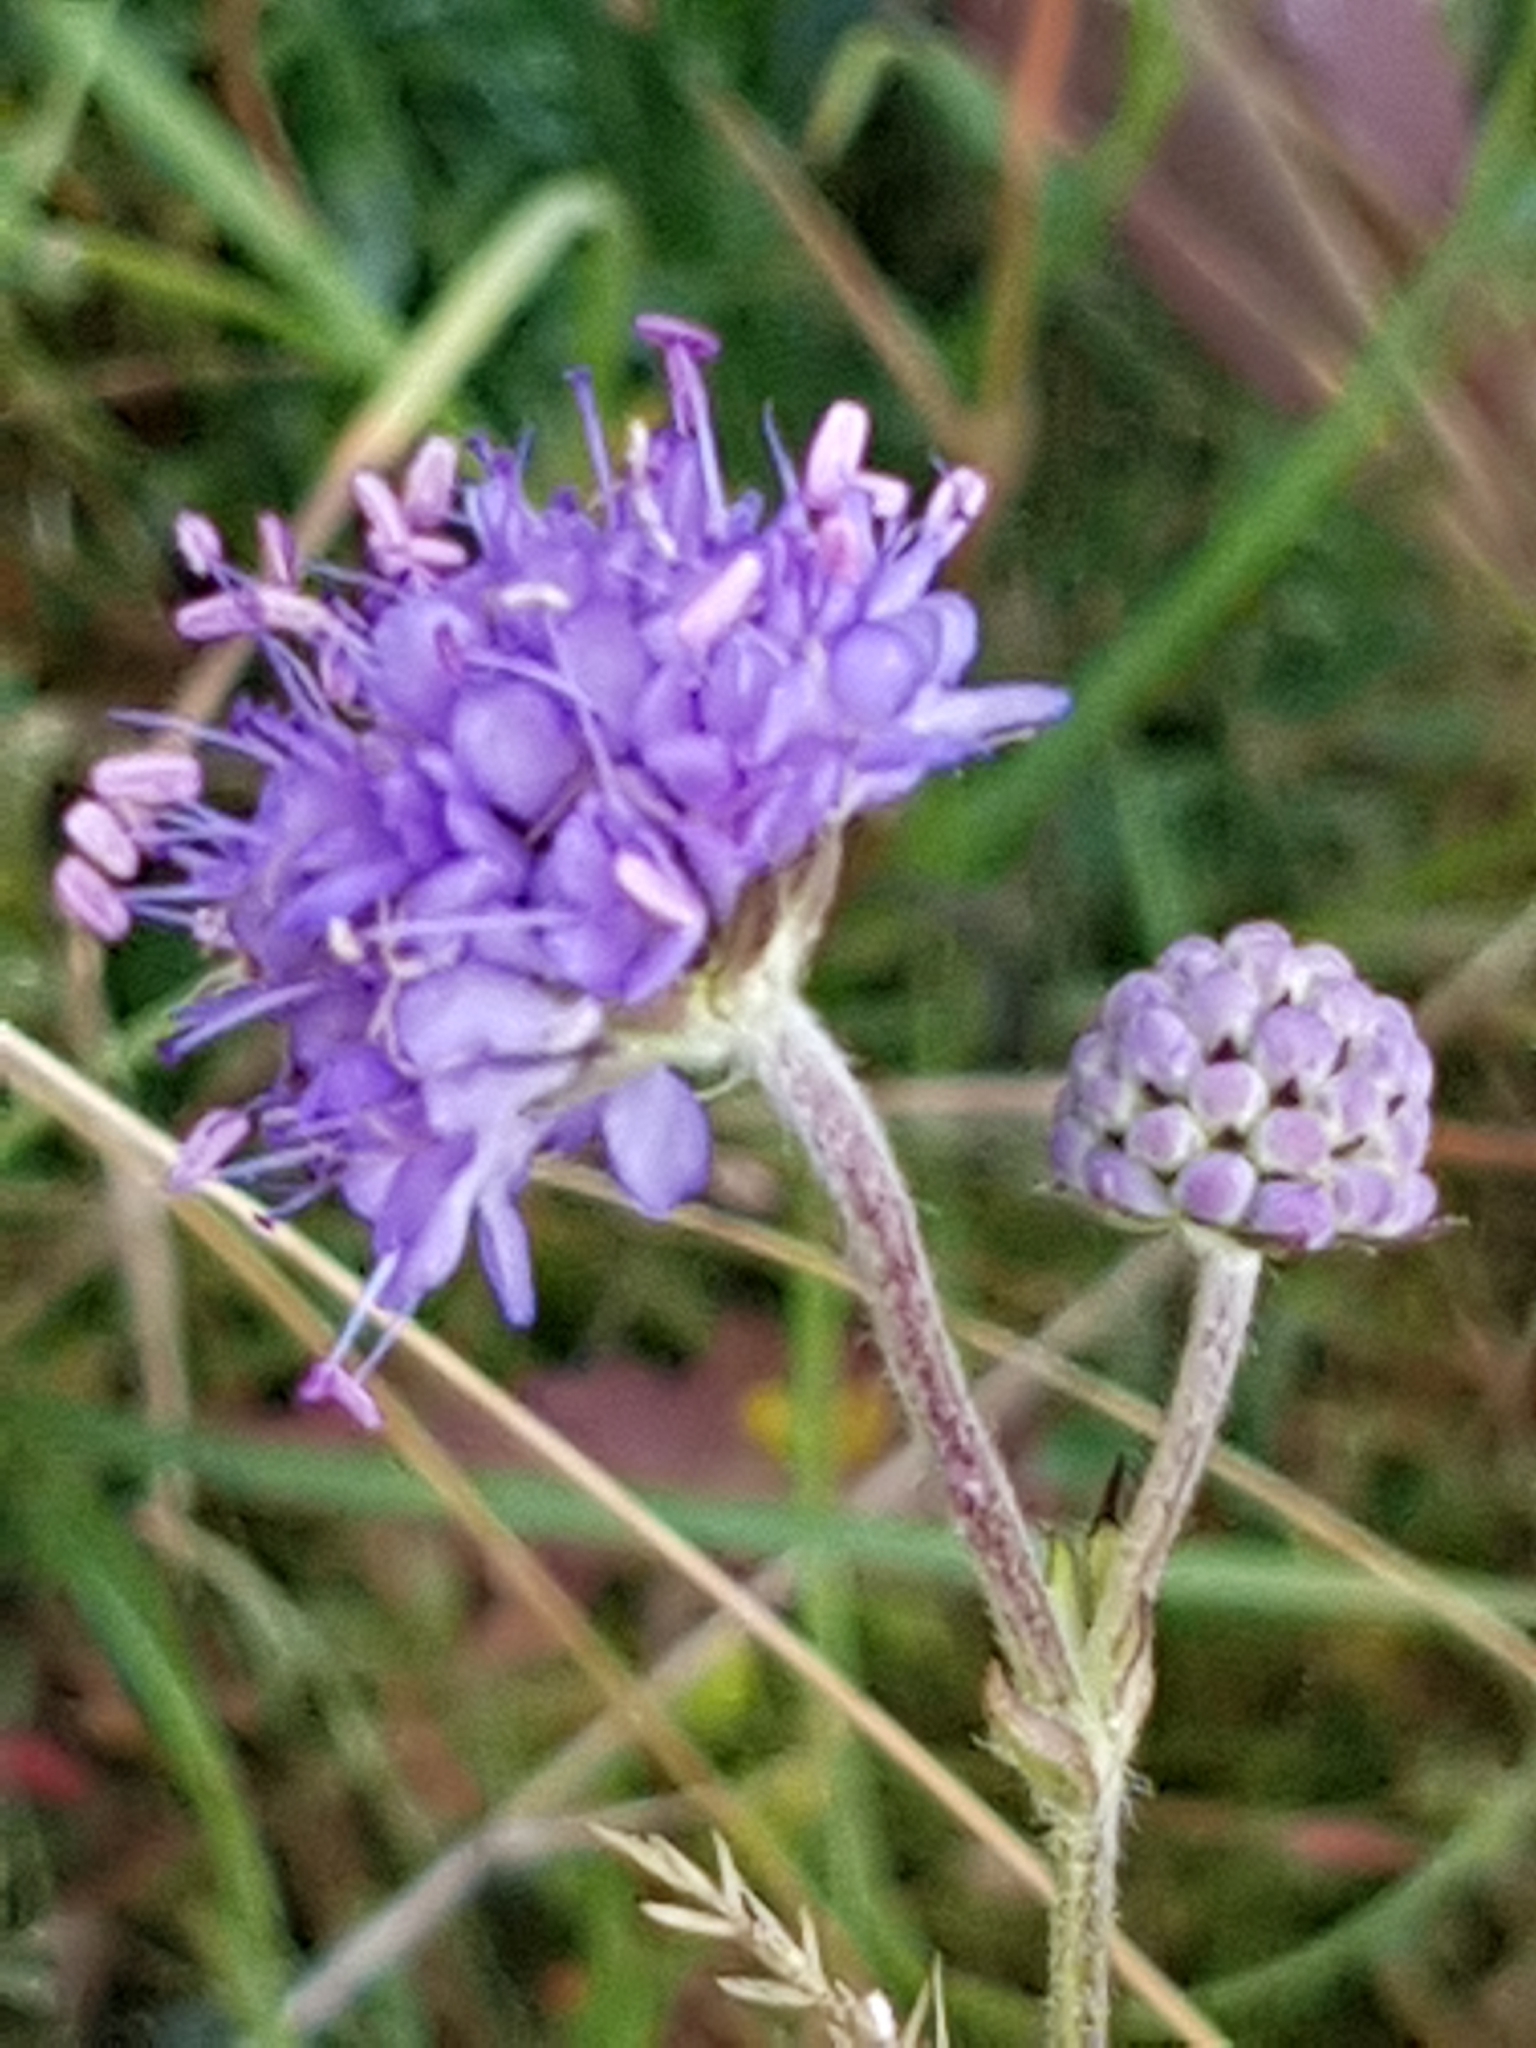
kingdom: Plantae
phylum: Tracheophyta
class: Magnoliopsida
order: Dipsacales
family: Caprifoliaceae
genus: Succisa
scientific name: Succisa pratensis
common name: Devil's-bit
